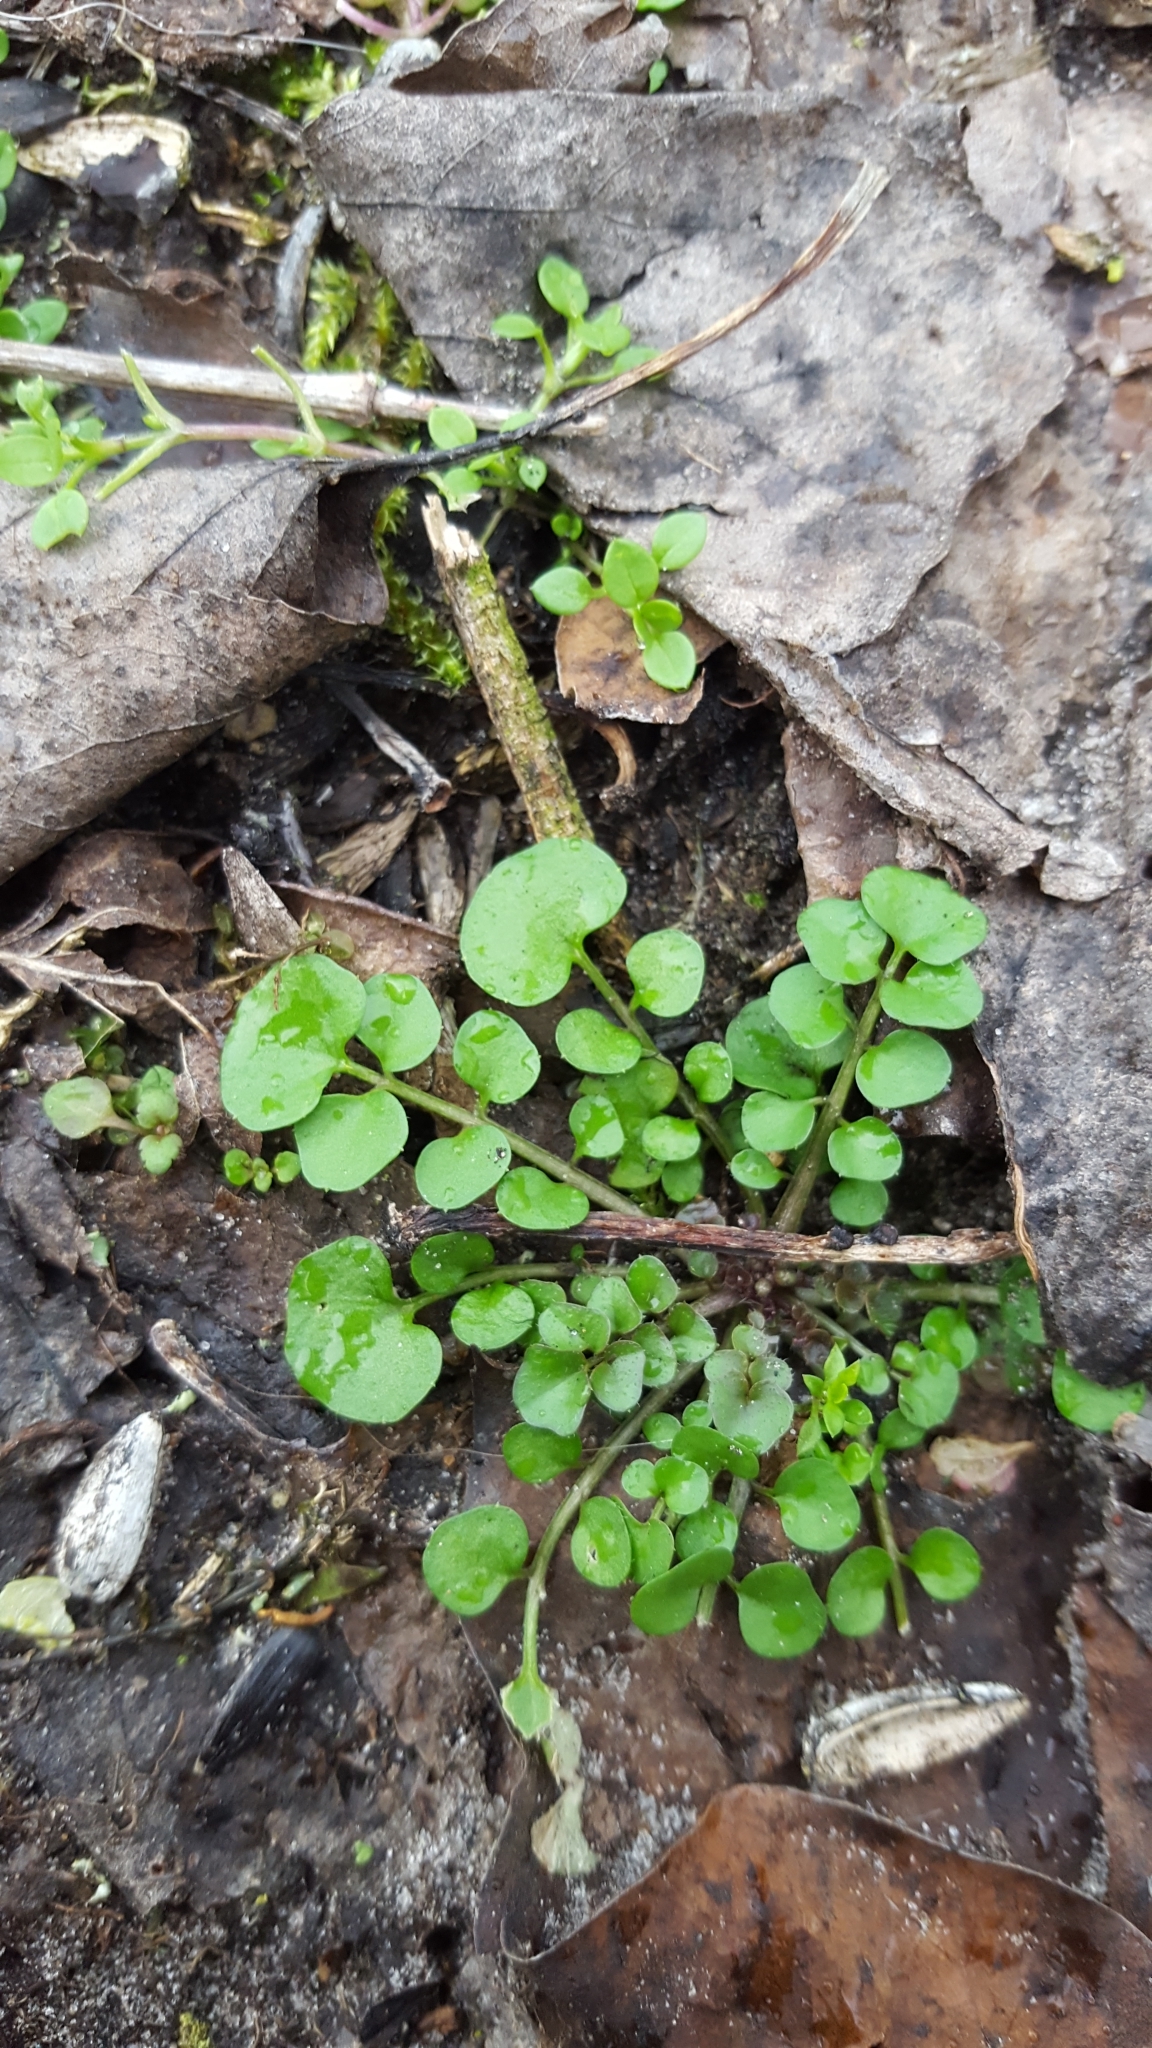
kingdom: Plantae
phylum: Tracheophyta
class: Magnoliopsida
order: Brassicales
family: Brassicaceae
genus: Cardamine
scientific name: Cardamine hirsuta
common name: Hairy bittercress
